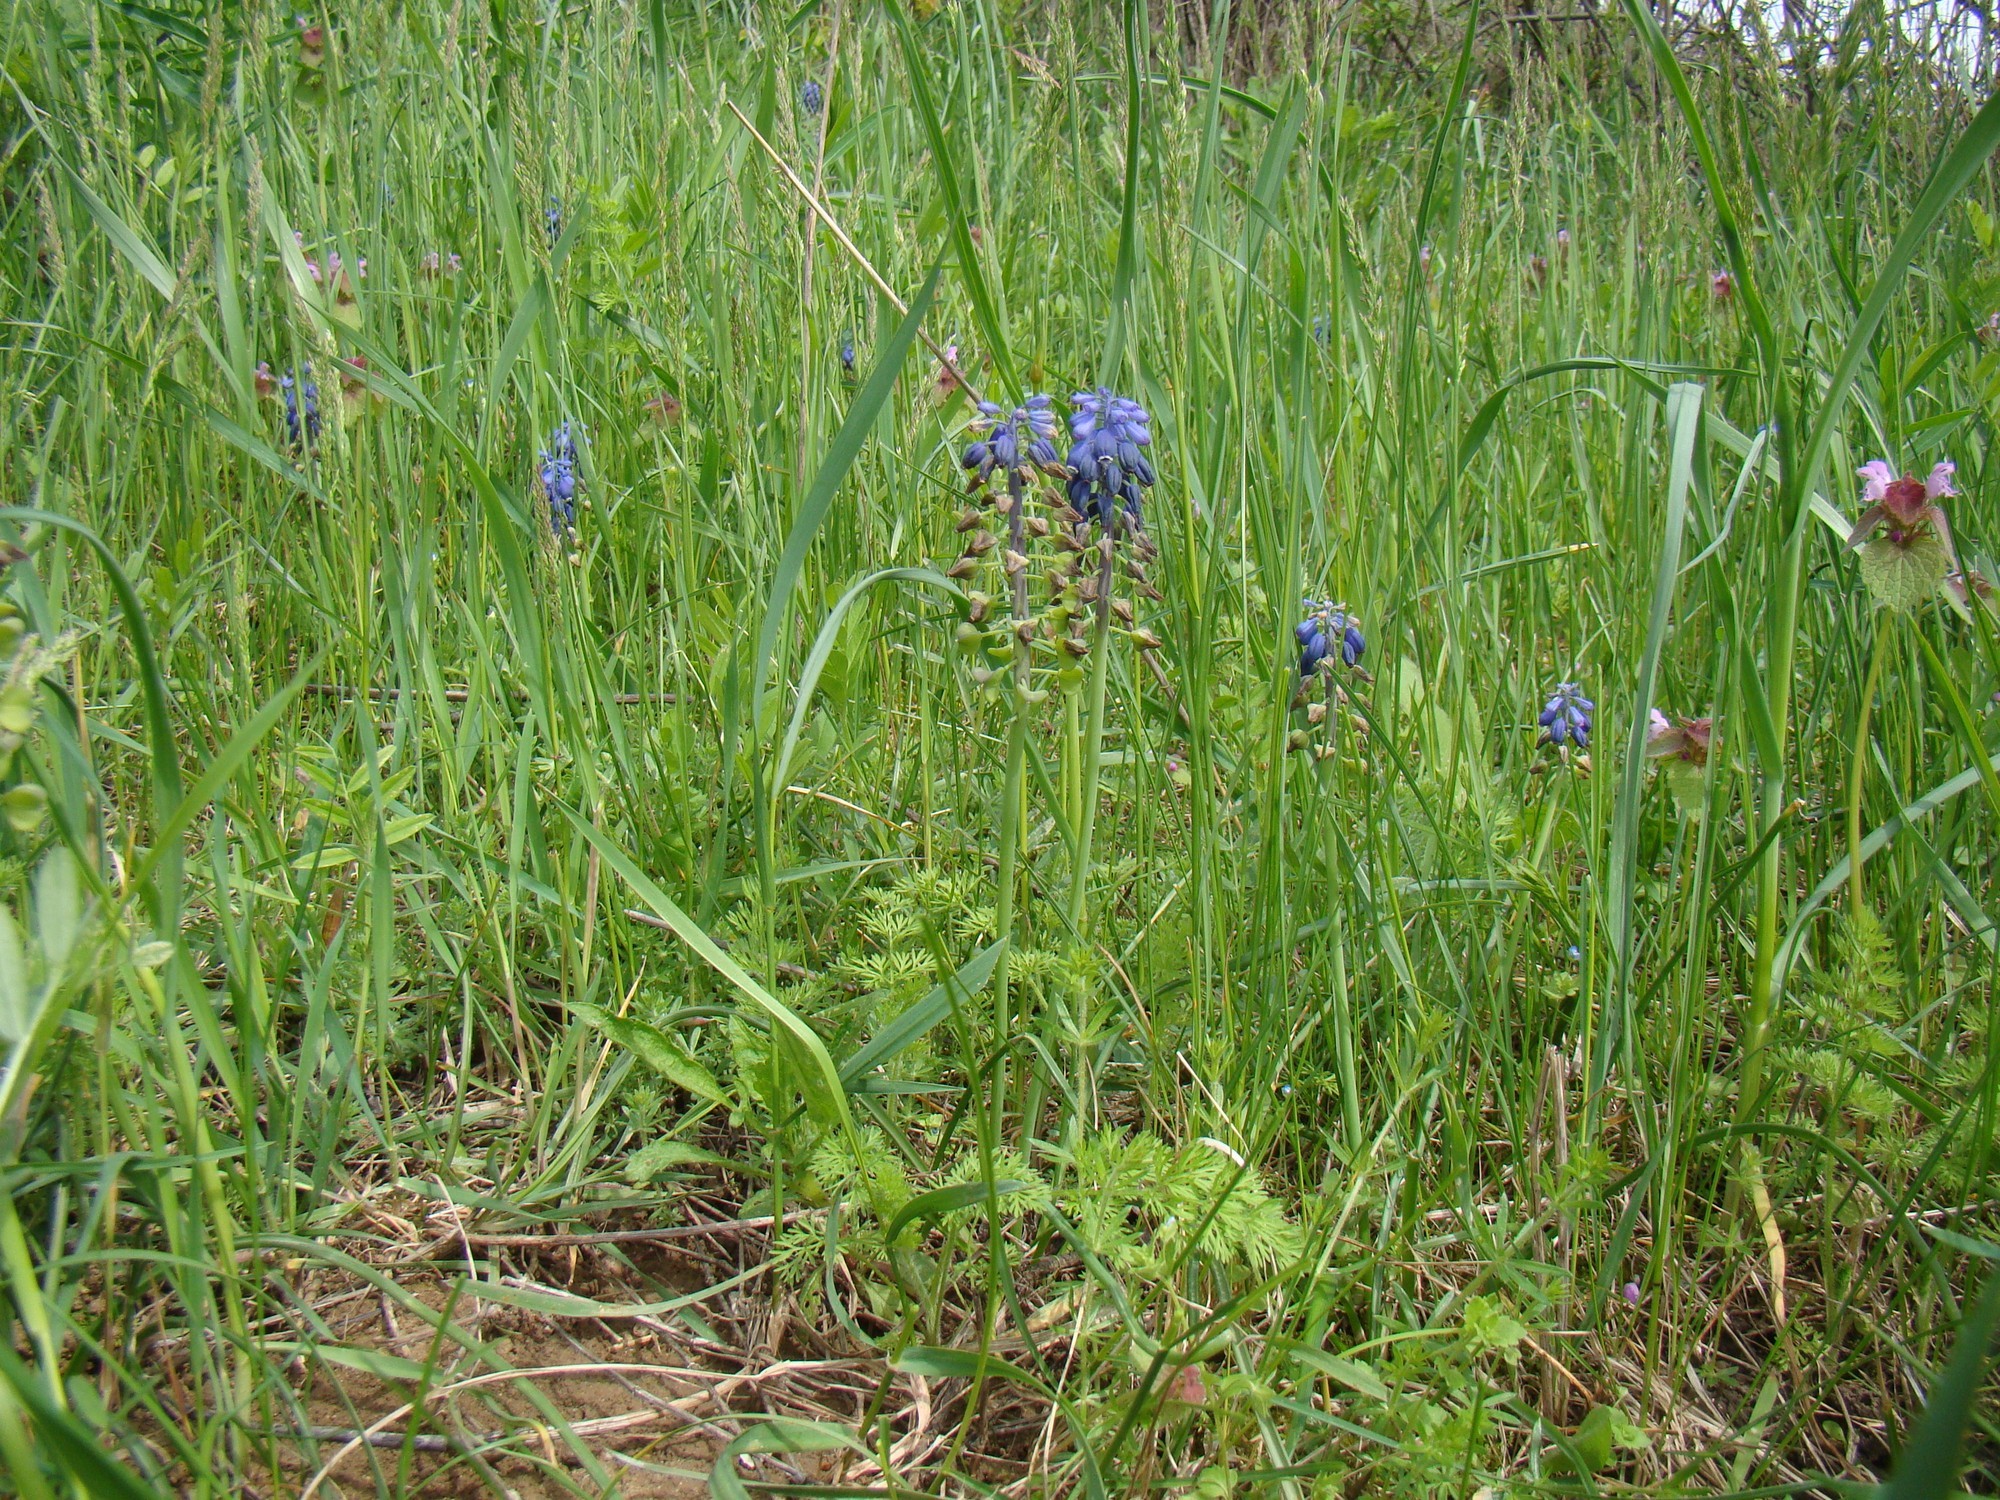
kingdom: Plantae
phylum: Tracheophyta
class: Liliopsida
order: Asparagales
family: Asparagaceae
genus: Muscari
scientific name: Muscari neglectum
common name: Grape-hyacinth
